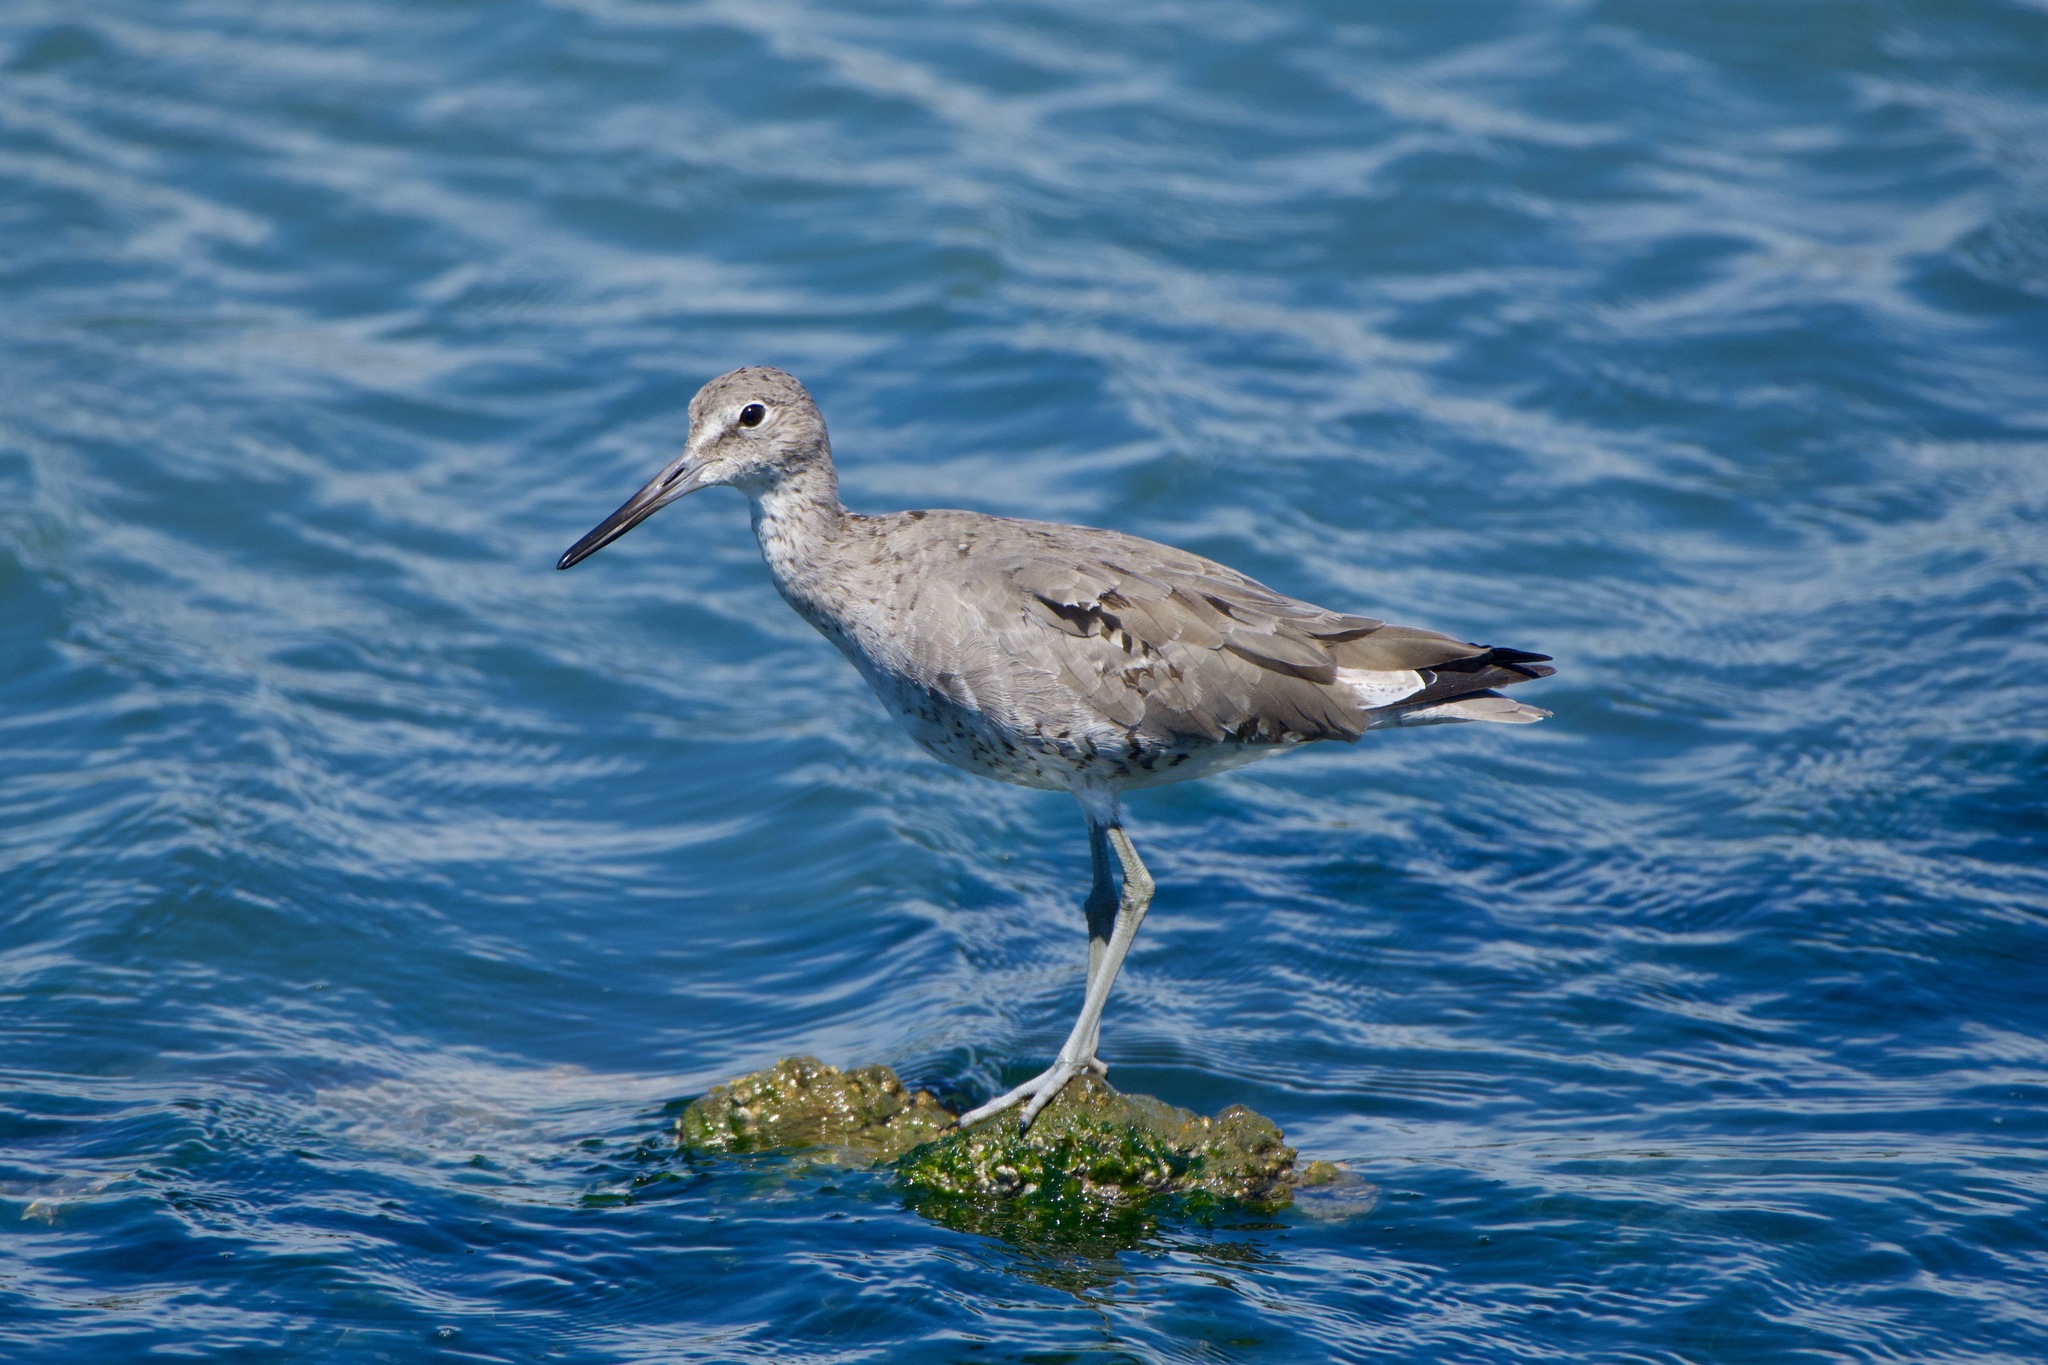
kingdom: Animalia
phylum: Chordata
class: Aves
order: Charadriiformes
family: Scolopacidae
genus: Tringa
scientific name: Tringa semipalmata
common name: Willet
